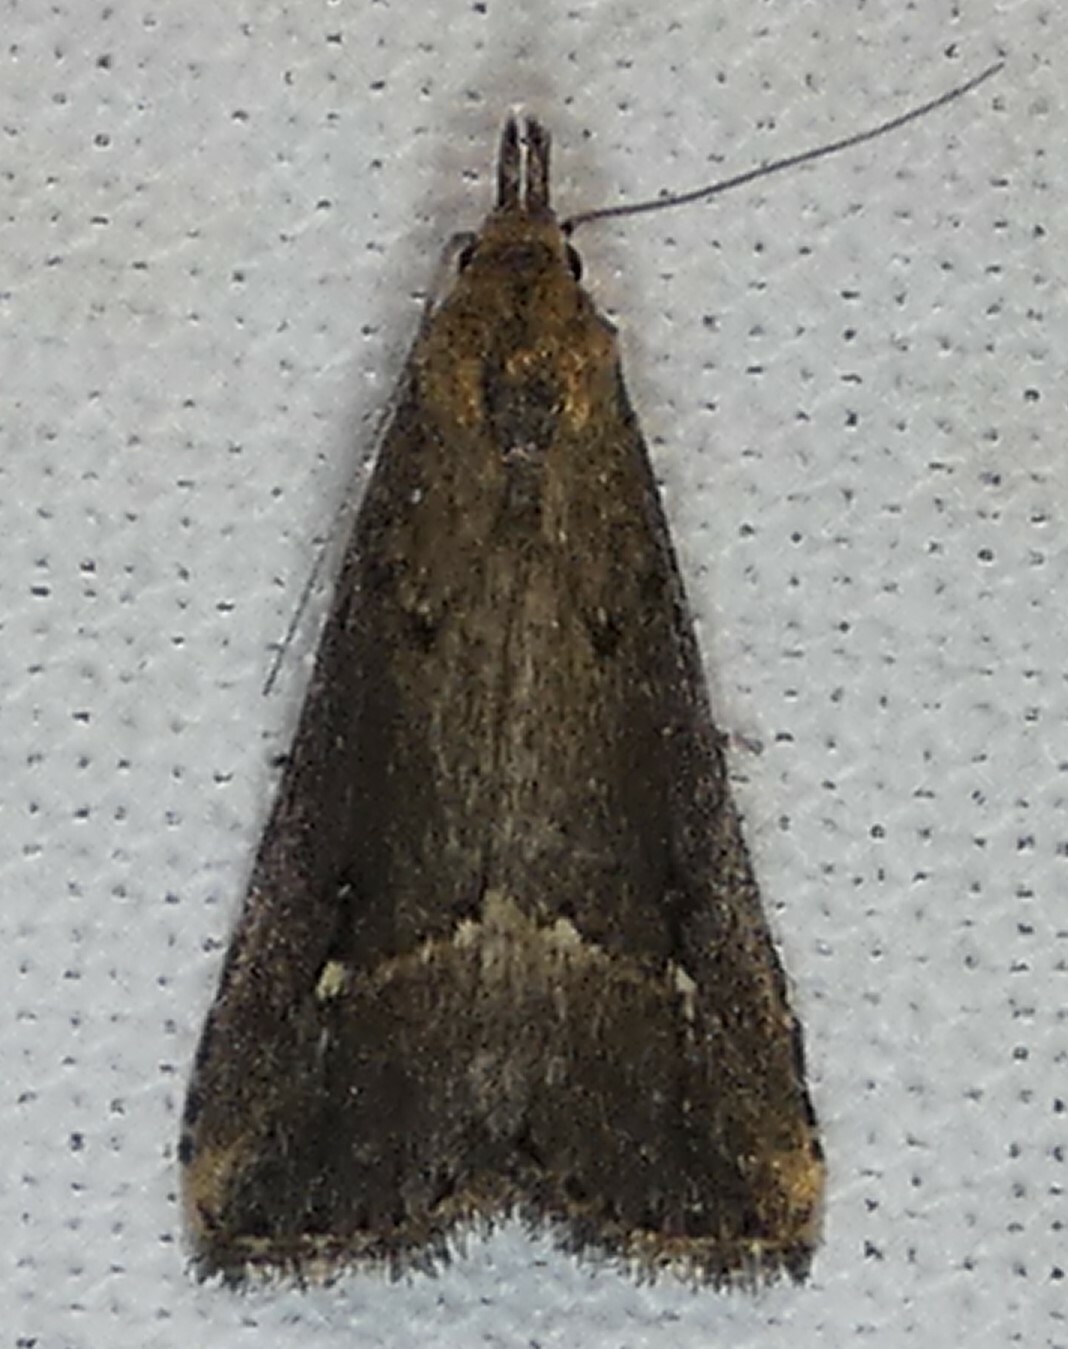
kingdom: Animalia
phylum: Arthropoda
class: Insecta
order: Lepidoptera
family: Erebidae
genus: Schrankia
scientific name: Schrankia
